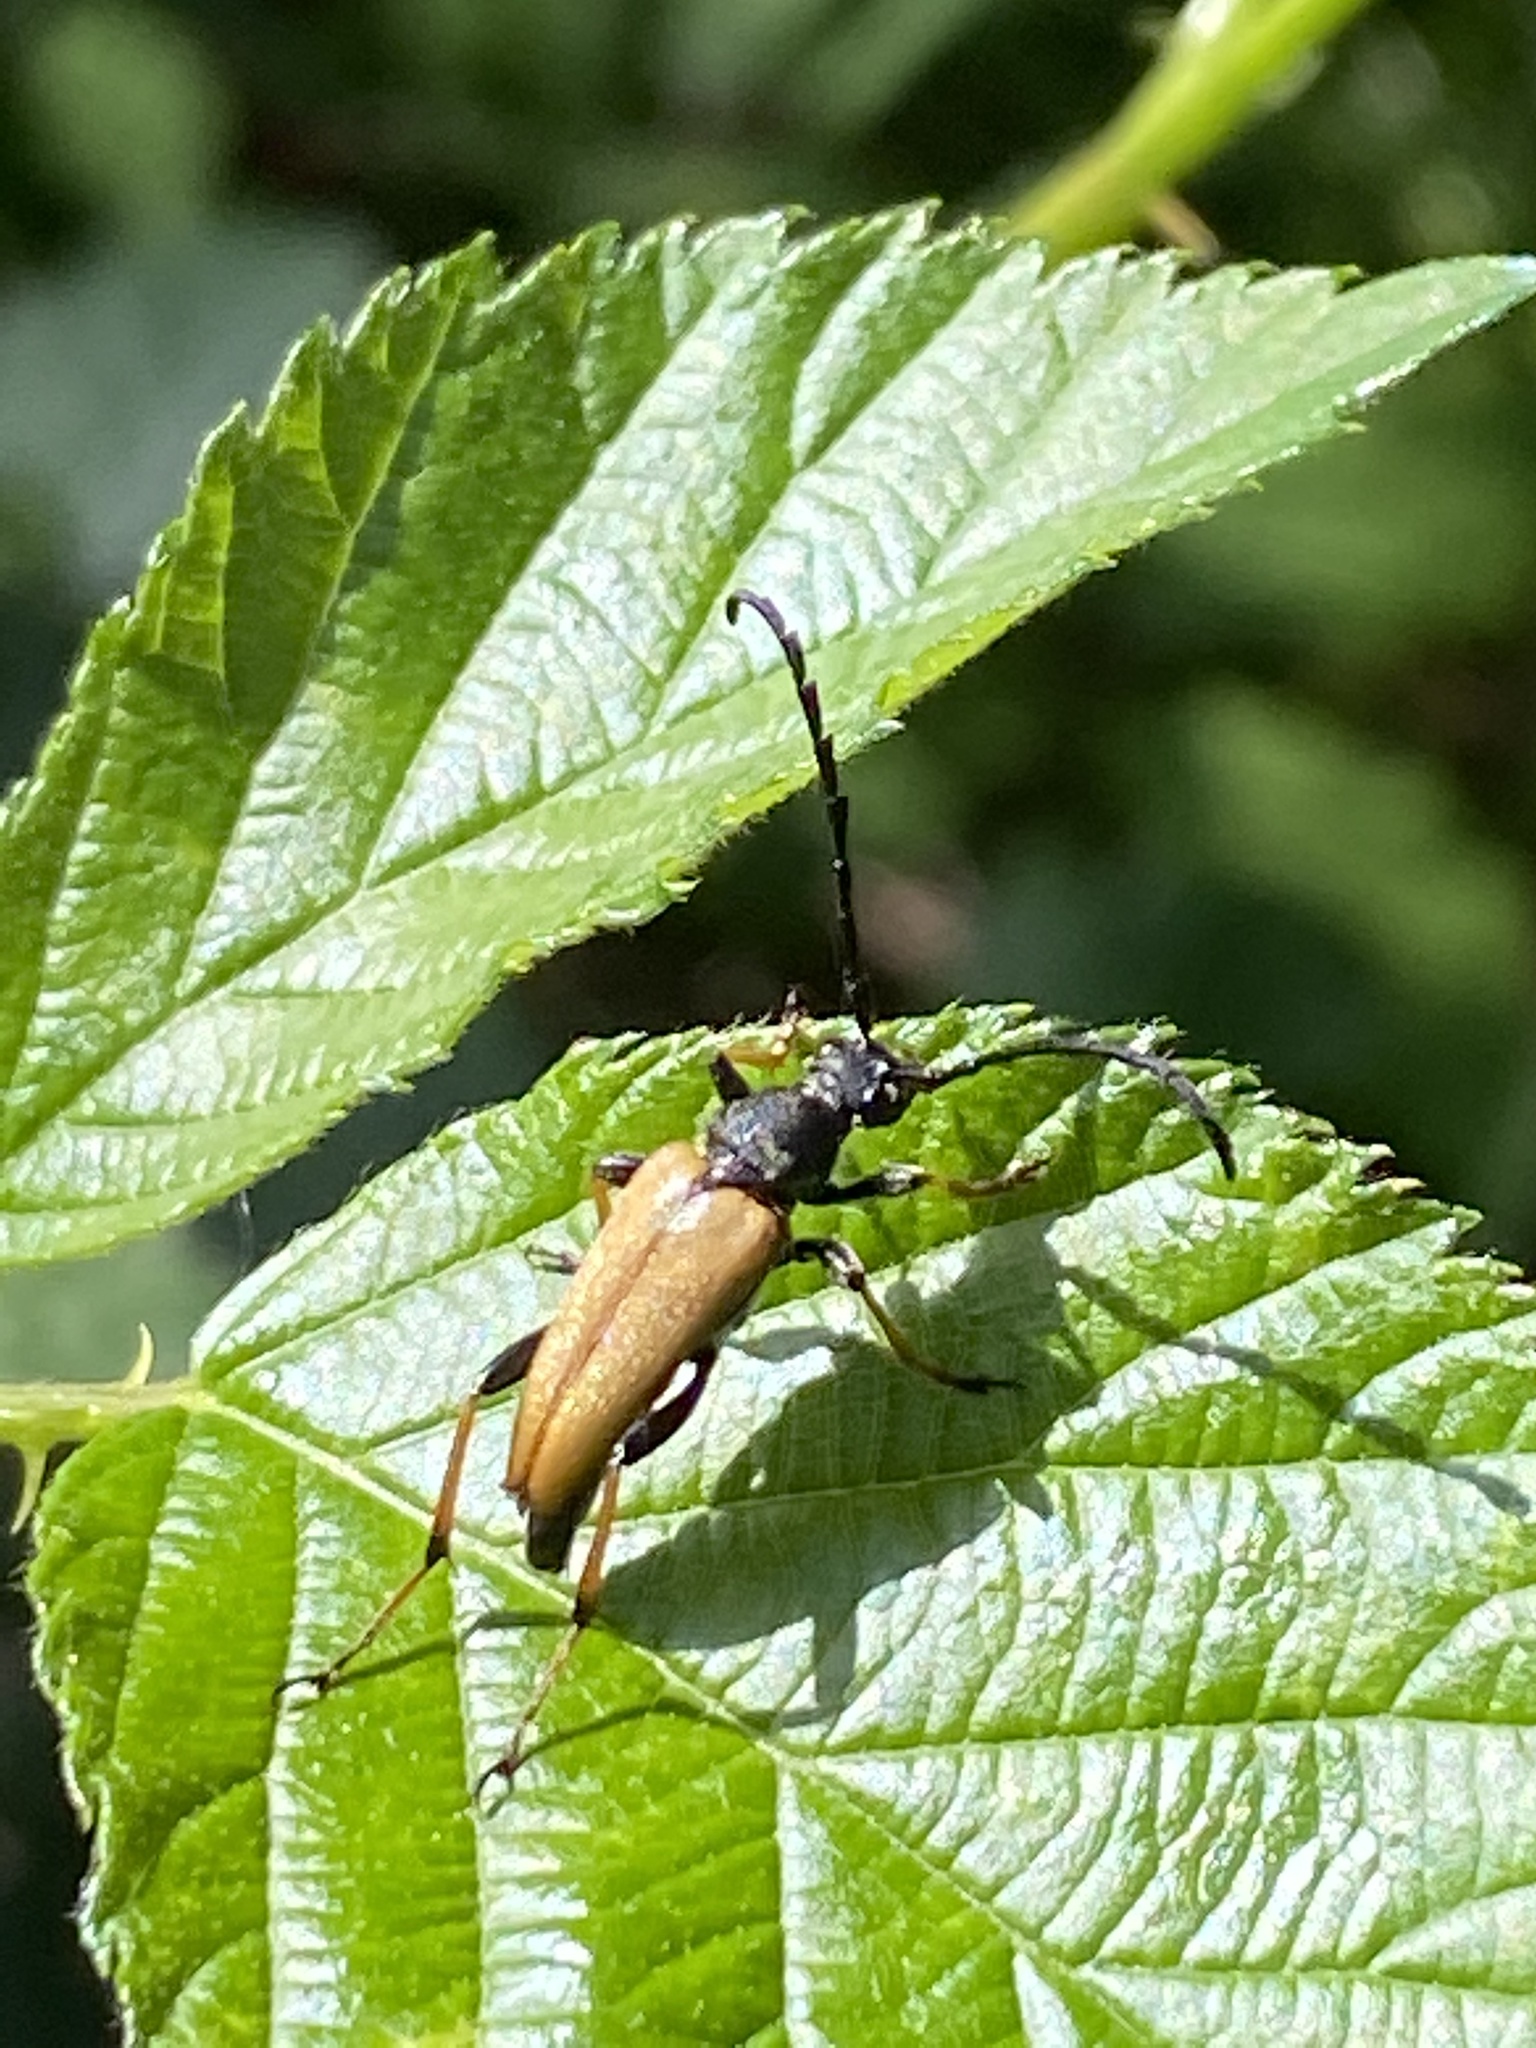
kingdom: Animalia
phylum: Arthropoda
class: Insecta
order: Coleoptera
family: Cerambycidae
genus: Stictoleptura
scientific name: Stictoleptura rubra
